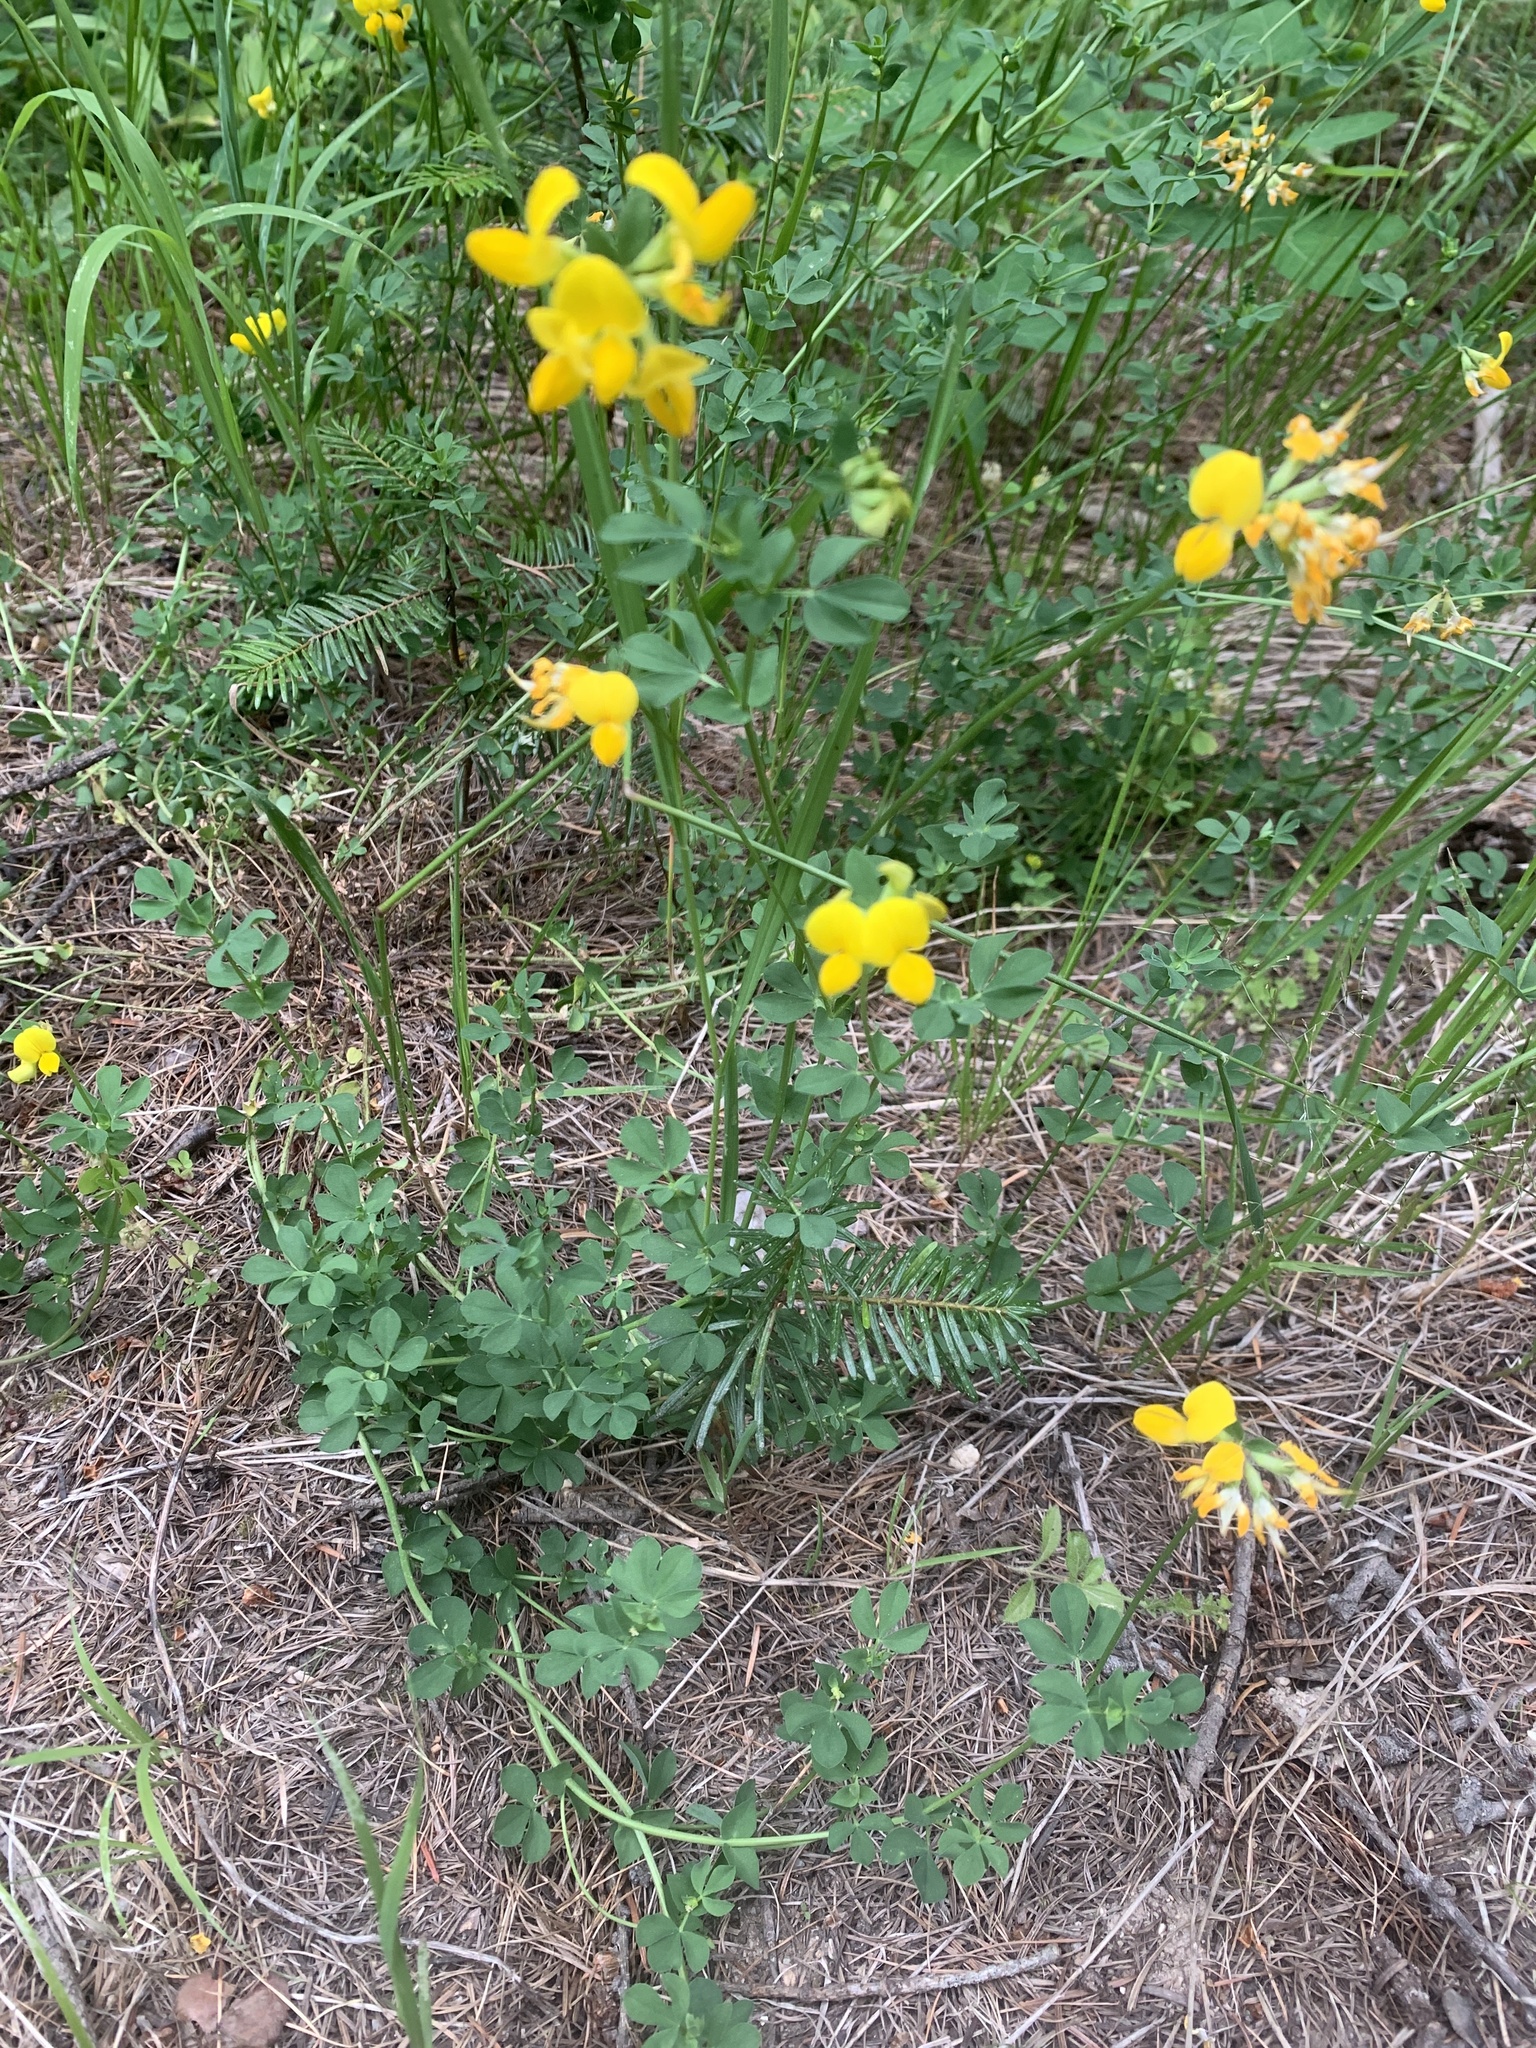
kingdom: Plantae
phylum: Tracheophyta
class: Magnoliopsida
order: Fabales
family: Fabaceae
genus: Lotus
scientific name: Lotus corniculatus
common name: Common bird's-foot-trefoil
